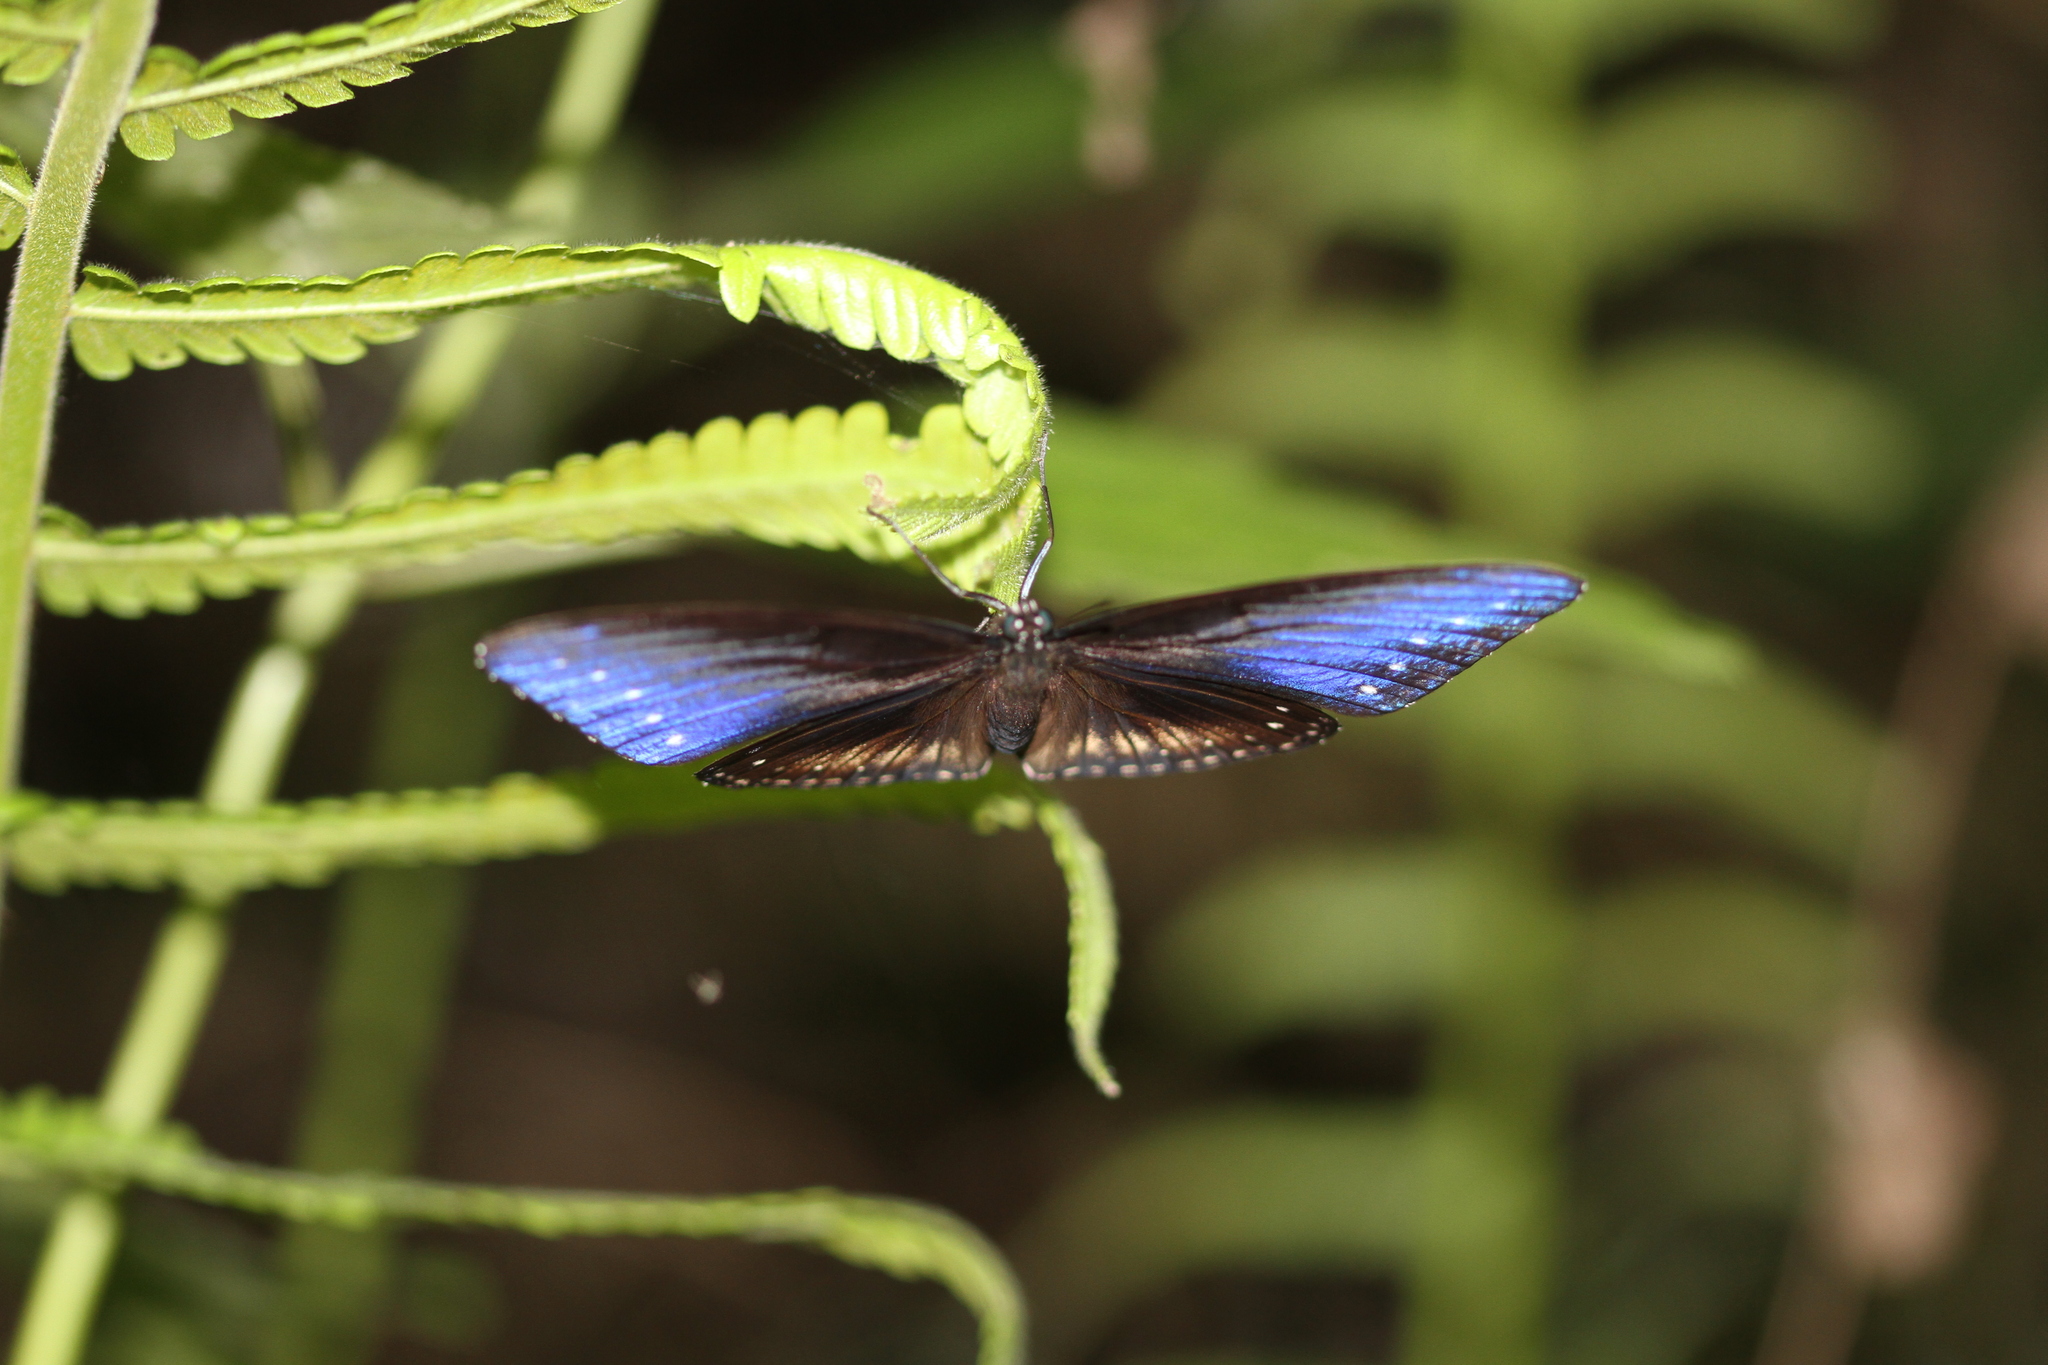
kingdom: Animalia
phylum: Arthropoda
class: Insecta
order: Lepidoptera
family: Nymphalidae
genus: Hypolimnas
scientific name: Hypolimnas anomala
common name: Malayan eggfly
